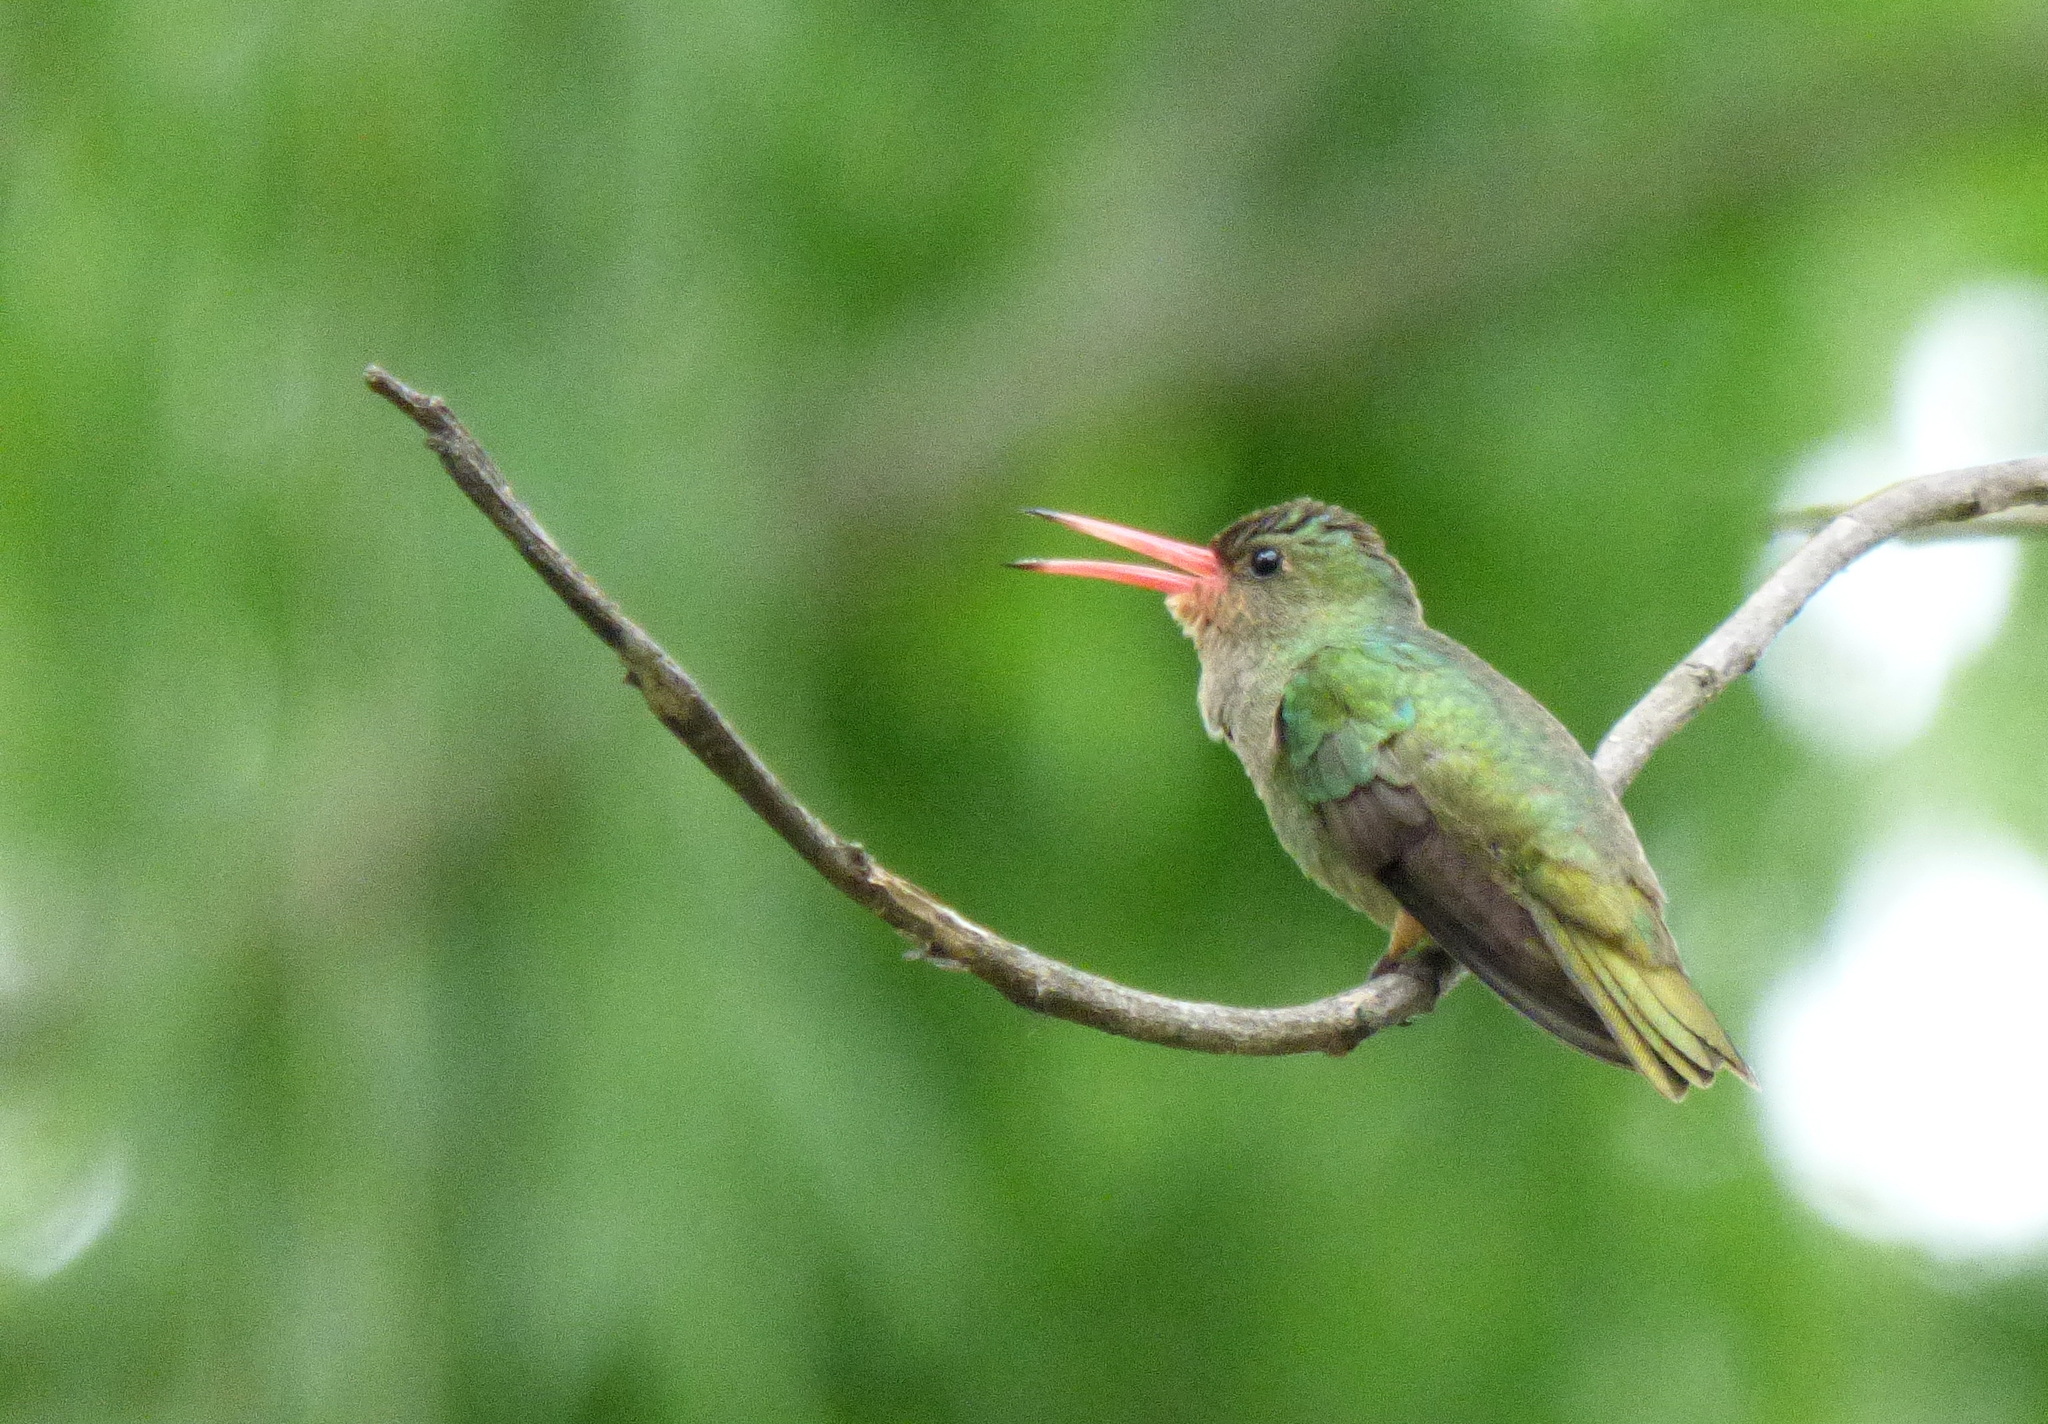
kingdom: Animalia
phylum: Chordata
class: Aves
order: Apodiformes
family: Trochilidae
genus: Hylocharis
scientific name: Hylocharis chrysura
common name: Gilded sapphire
